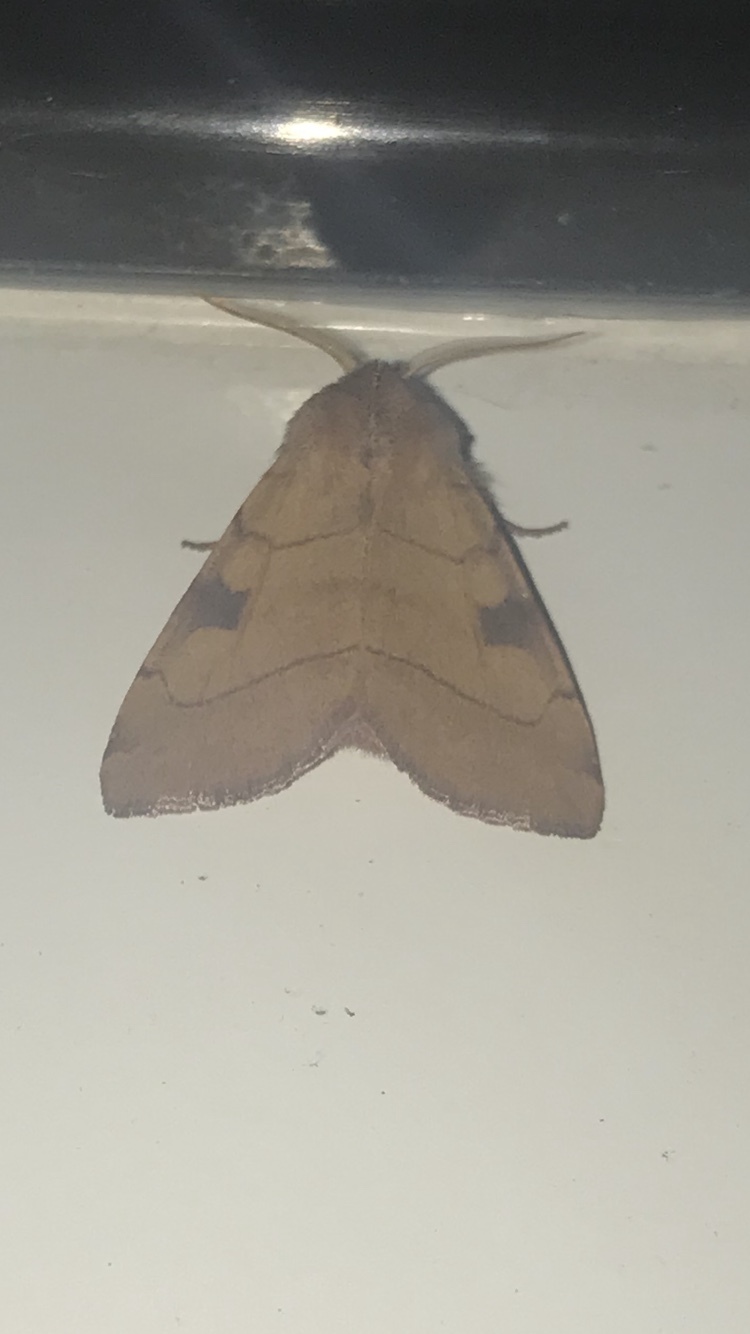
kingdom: Animalia
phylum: Arthropoda
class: Insecta
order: Lepidoptera
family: Noctuidae
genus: Choephora
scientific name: Choephora fungorum
